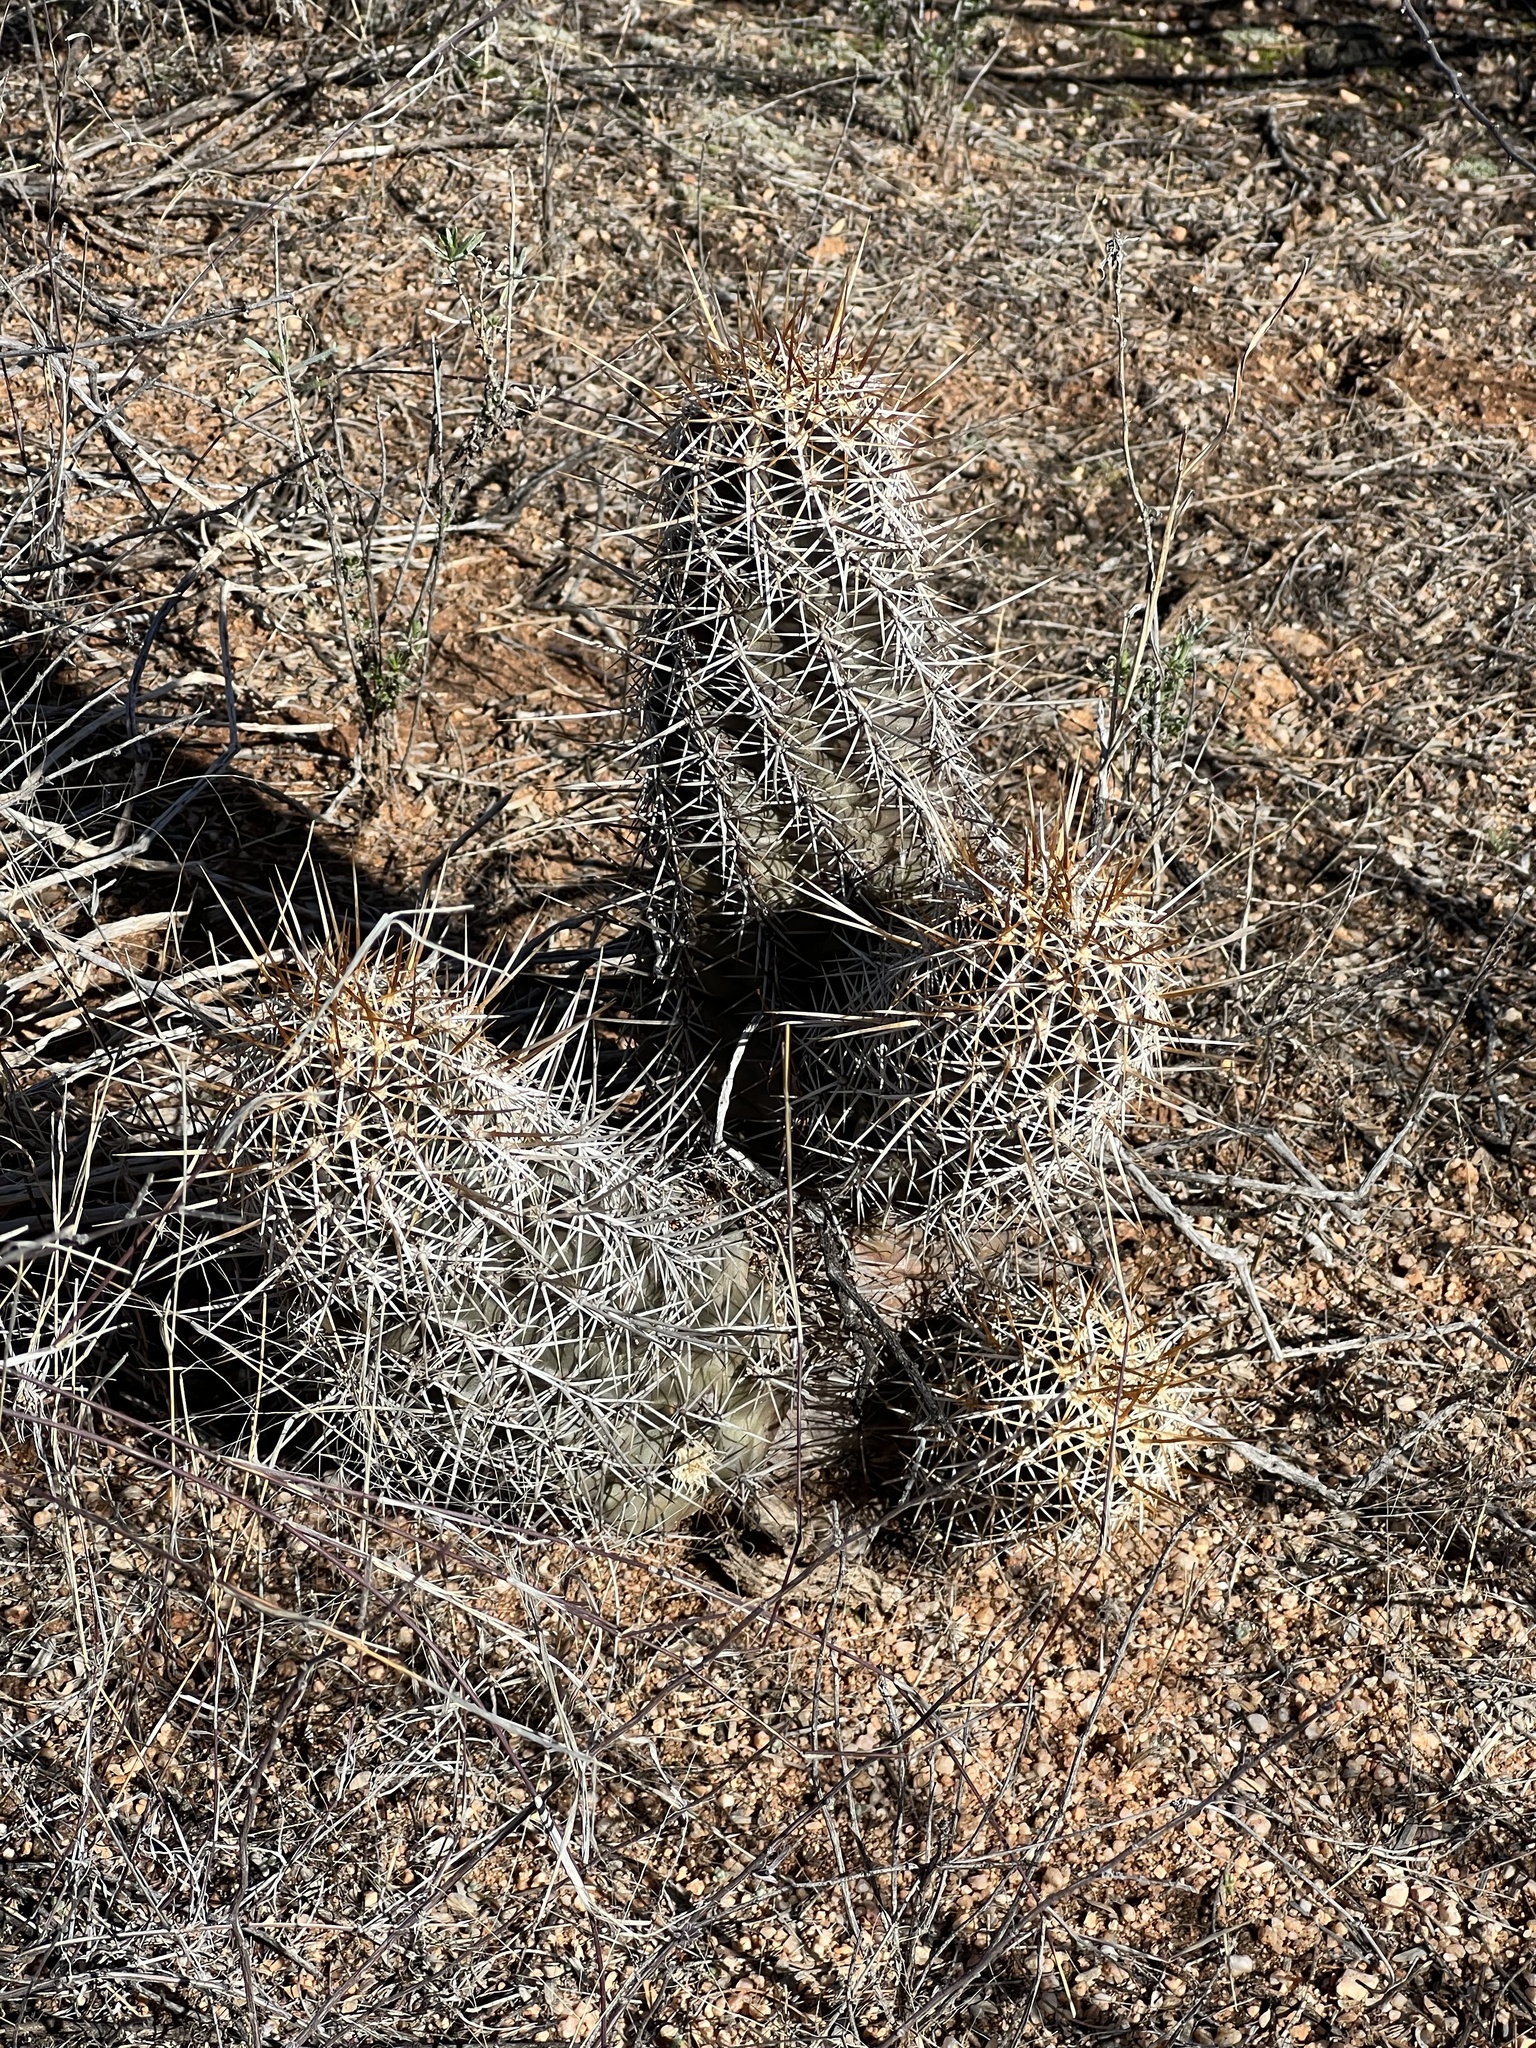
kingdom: Plantae
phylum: Tracheophyta
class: Magnoliopsida
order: Caryophyllales
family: Cactaceae
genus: Echinocereus
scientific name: Echinocereus fasciculatus
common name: Bundle hedgehog
